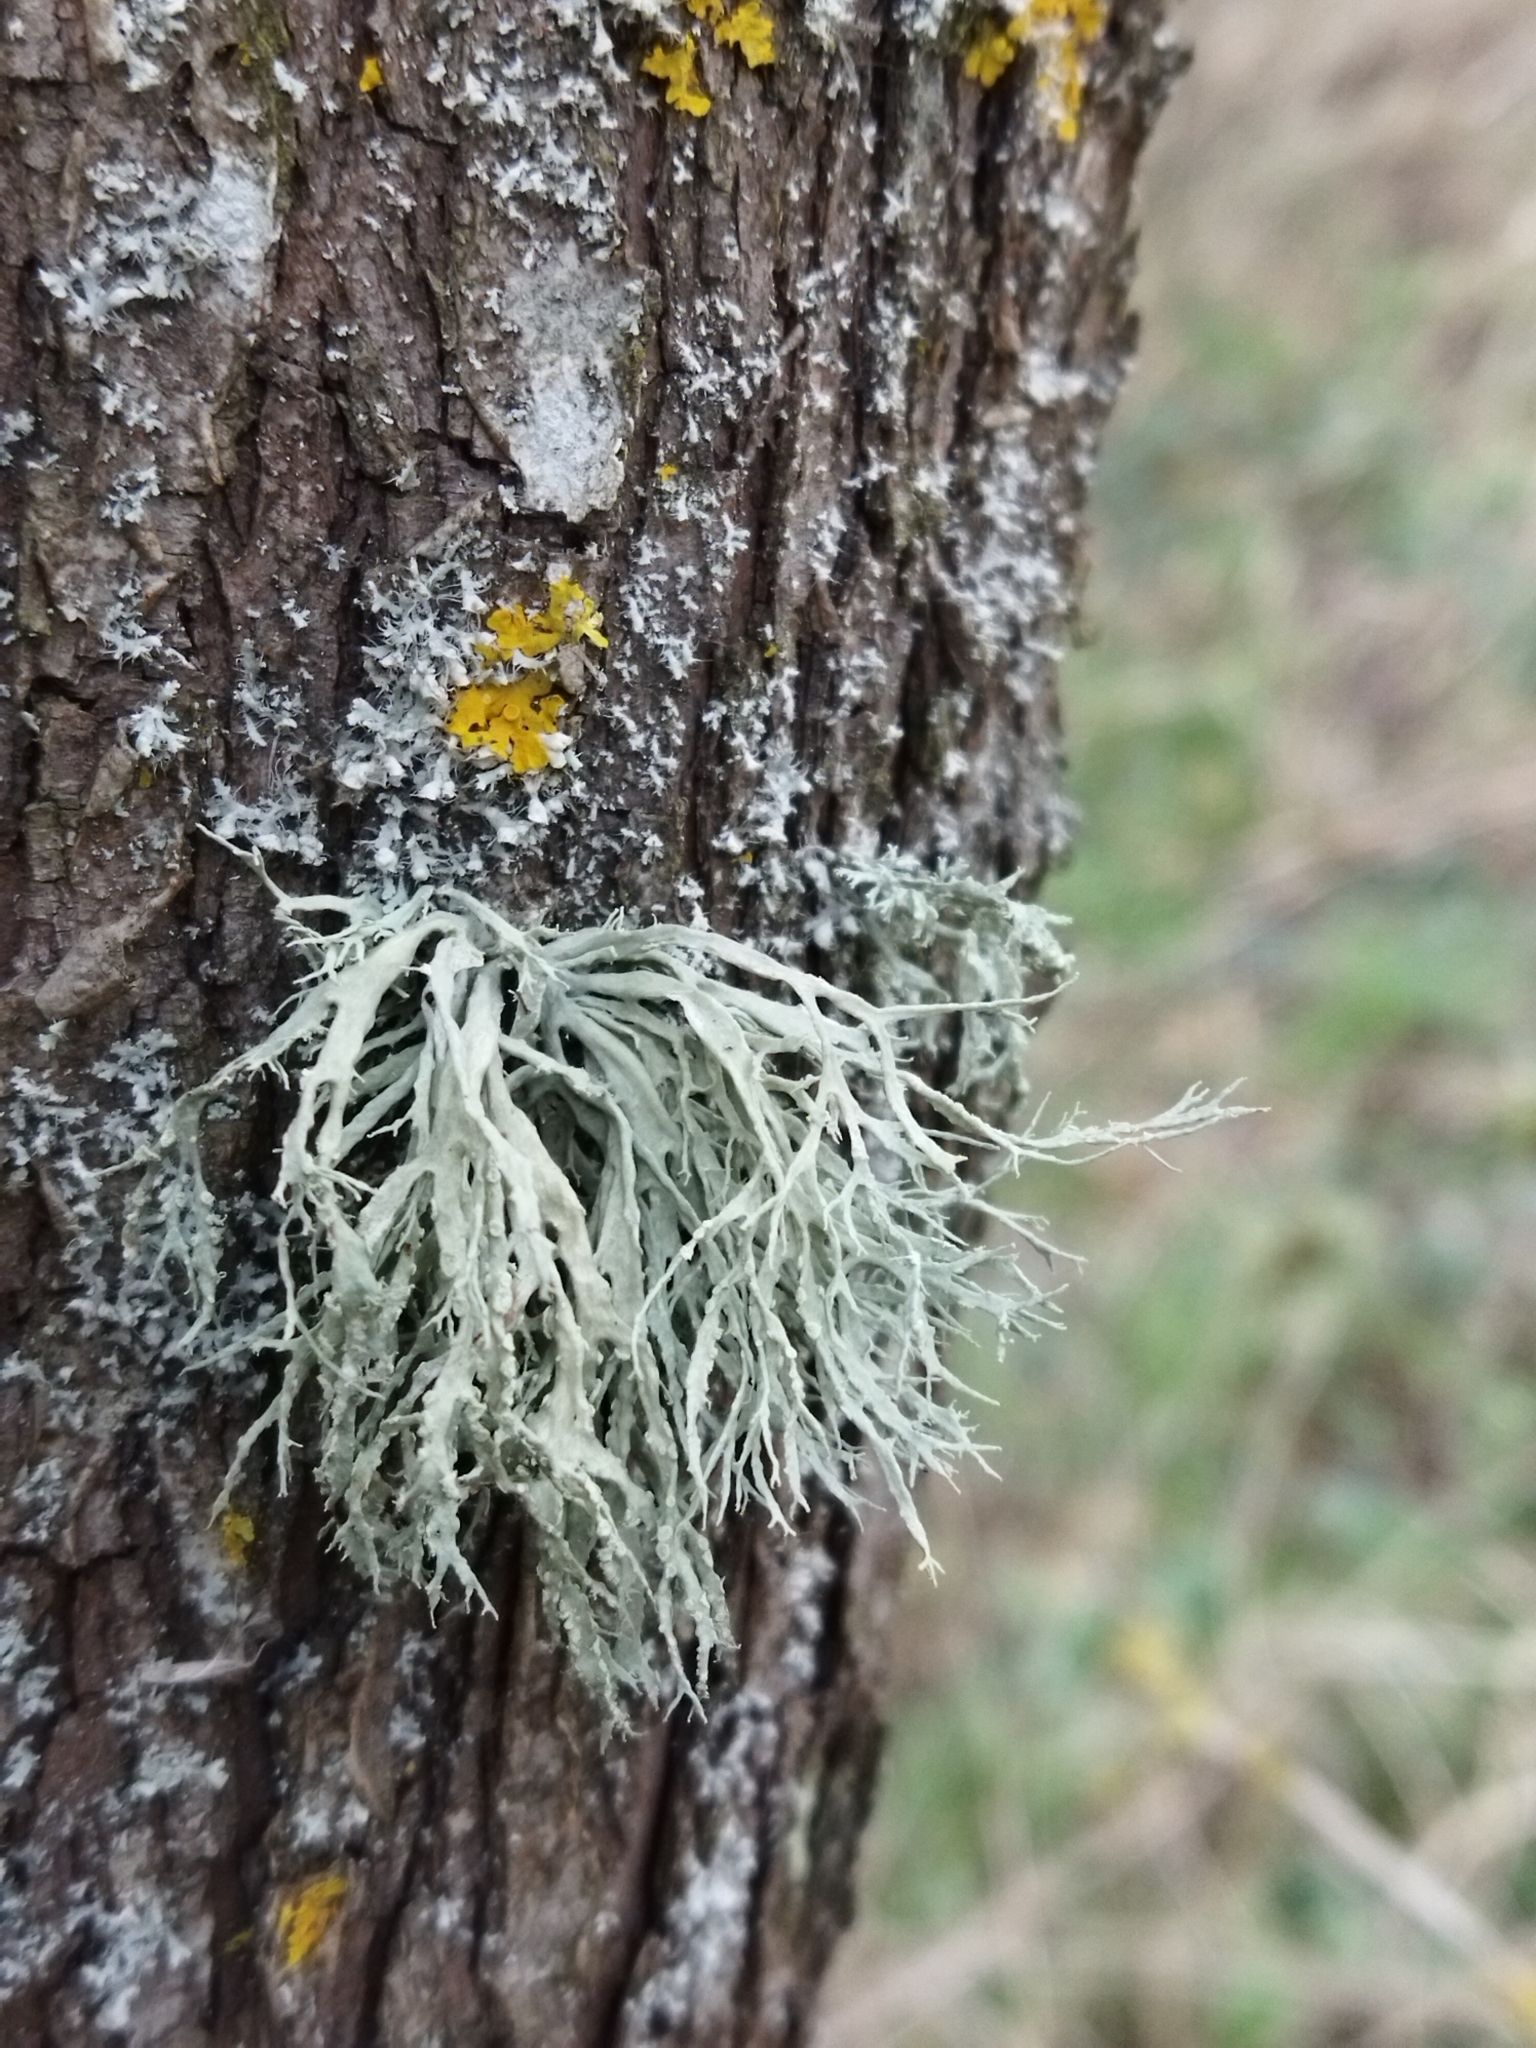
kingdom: Fungi
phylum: Ascomycota
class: Lecanoromycetes
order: Lecanorales
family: Ramalinaceae
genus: Ramalina
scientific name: Ramalina farinacea
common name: Farinose cartilage lichen
